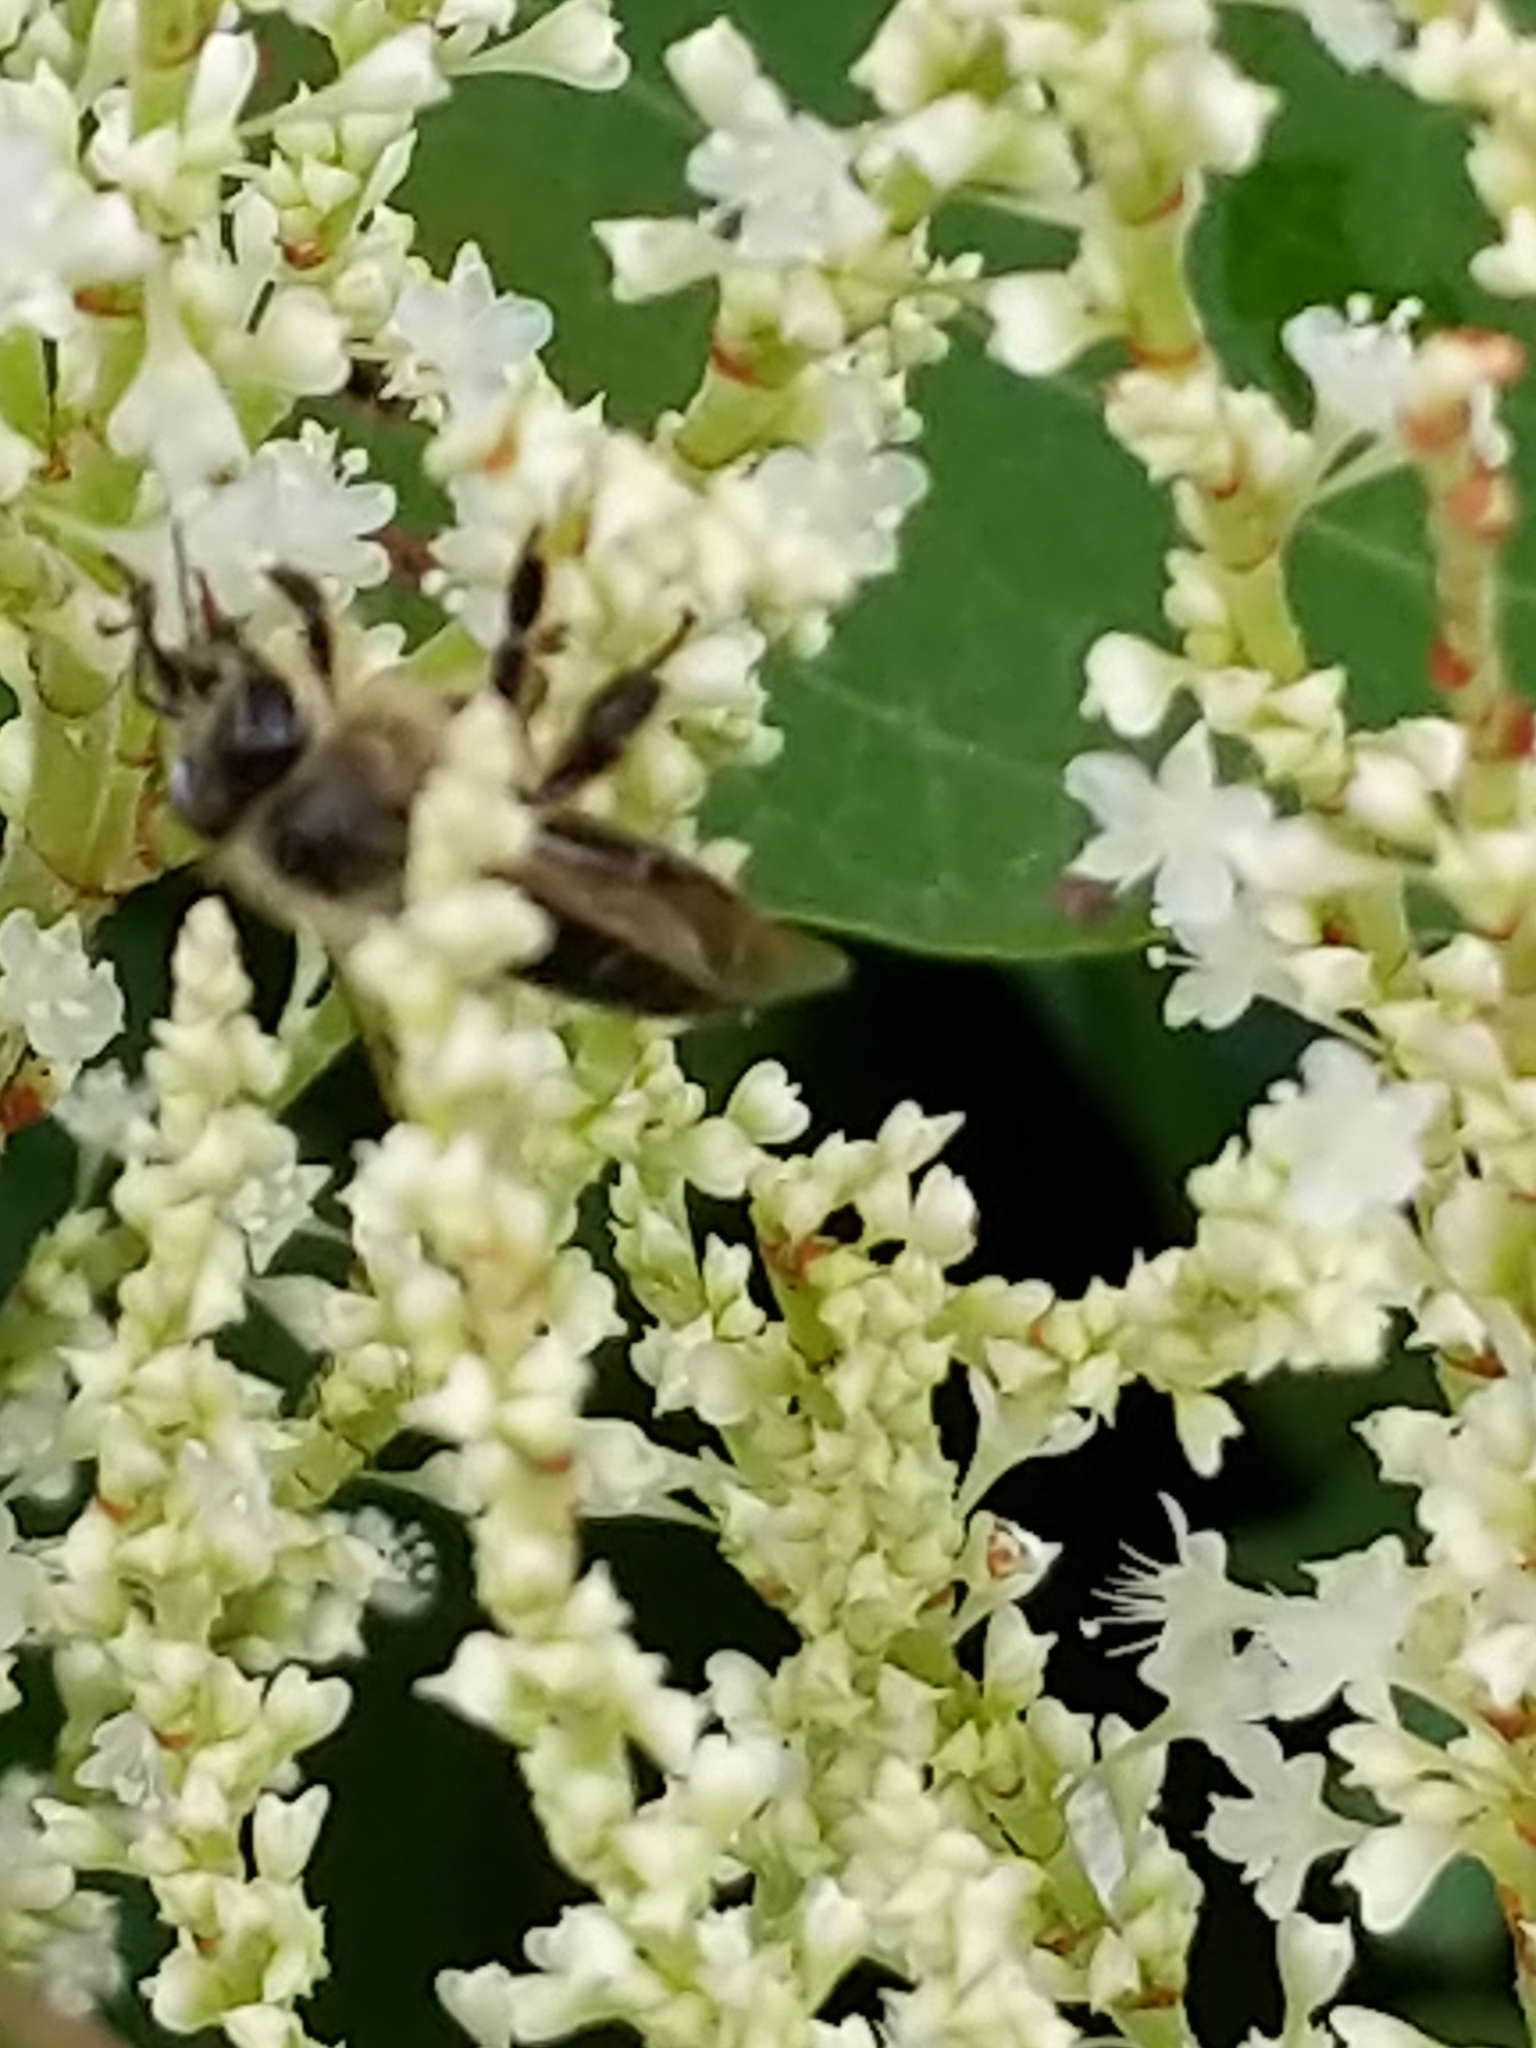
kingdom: Animalia
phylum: Arthropoda
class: Insecta
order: Hymenoptera
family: Apidae
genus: Apis
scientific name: Apis mellifera
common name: Honey bee
